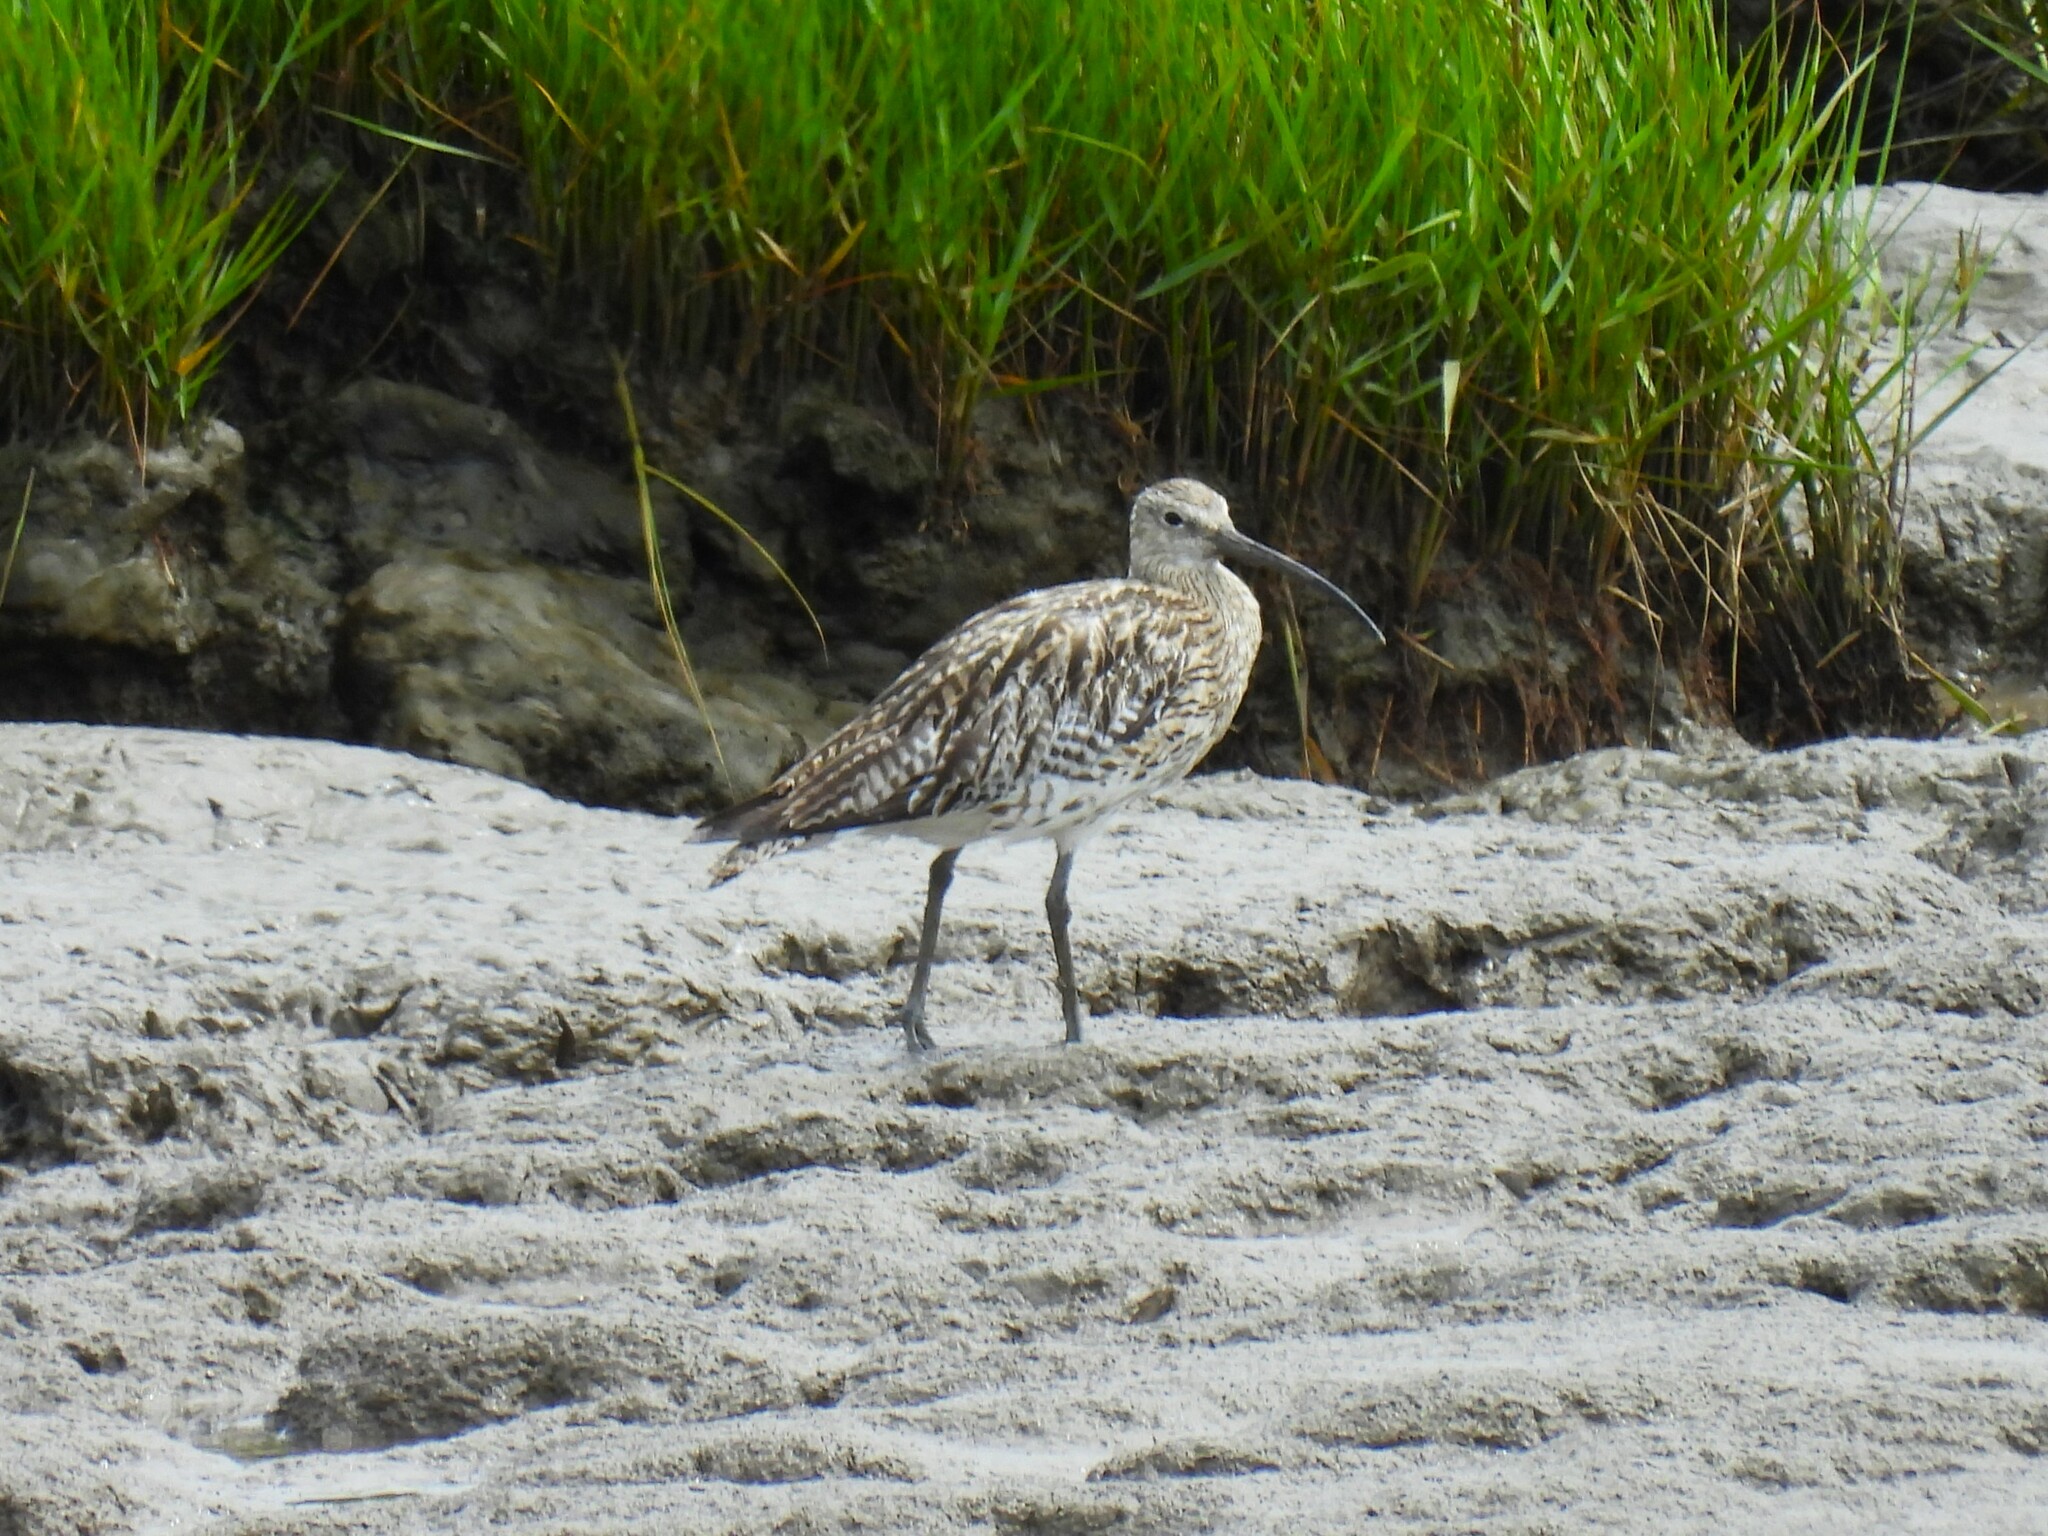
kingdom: Animalia
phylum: Chordata
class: Aves
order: Charadriiformes
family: Scolopacidae
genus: Numenius
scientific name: Numenius arquata
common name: Eurasian curlew
